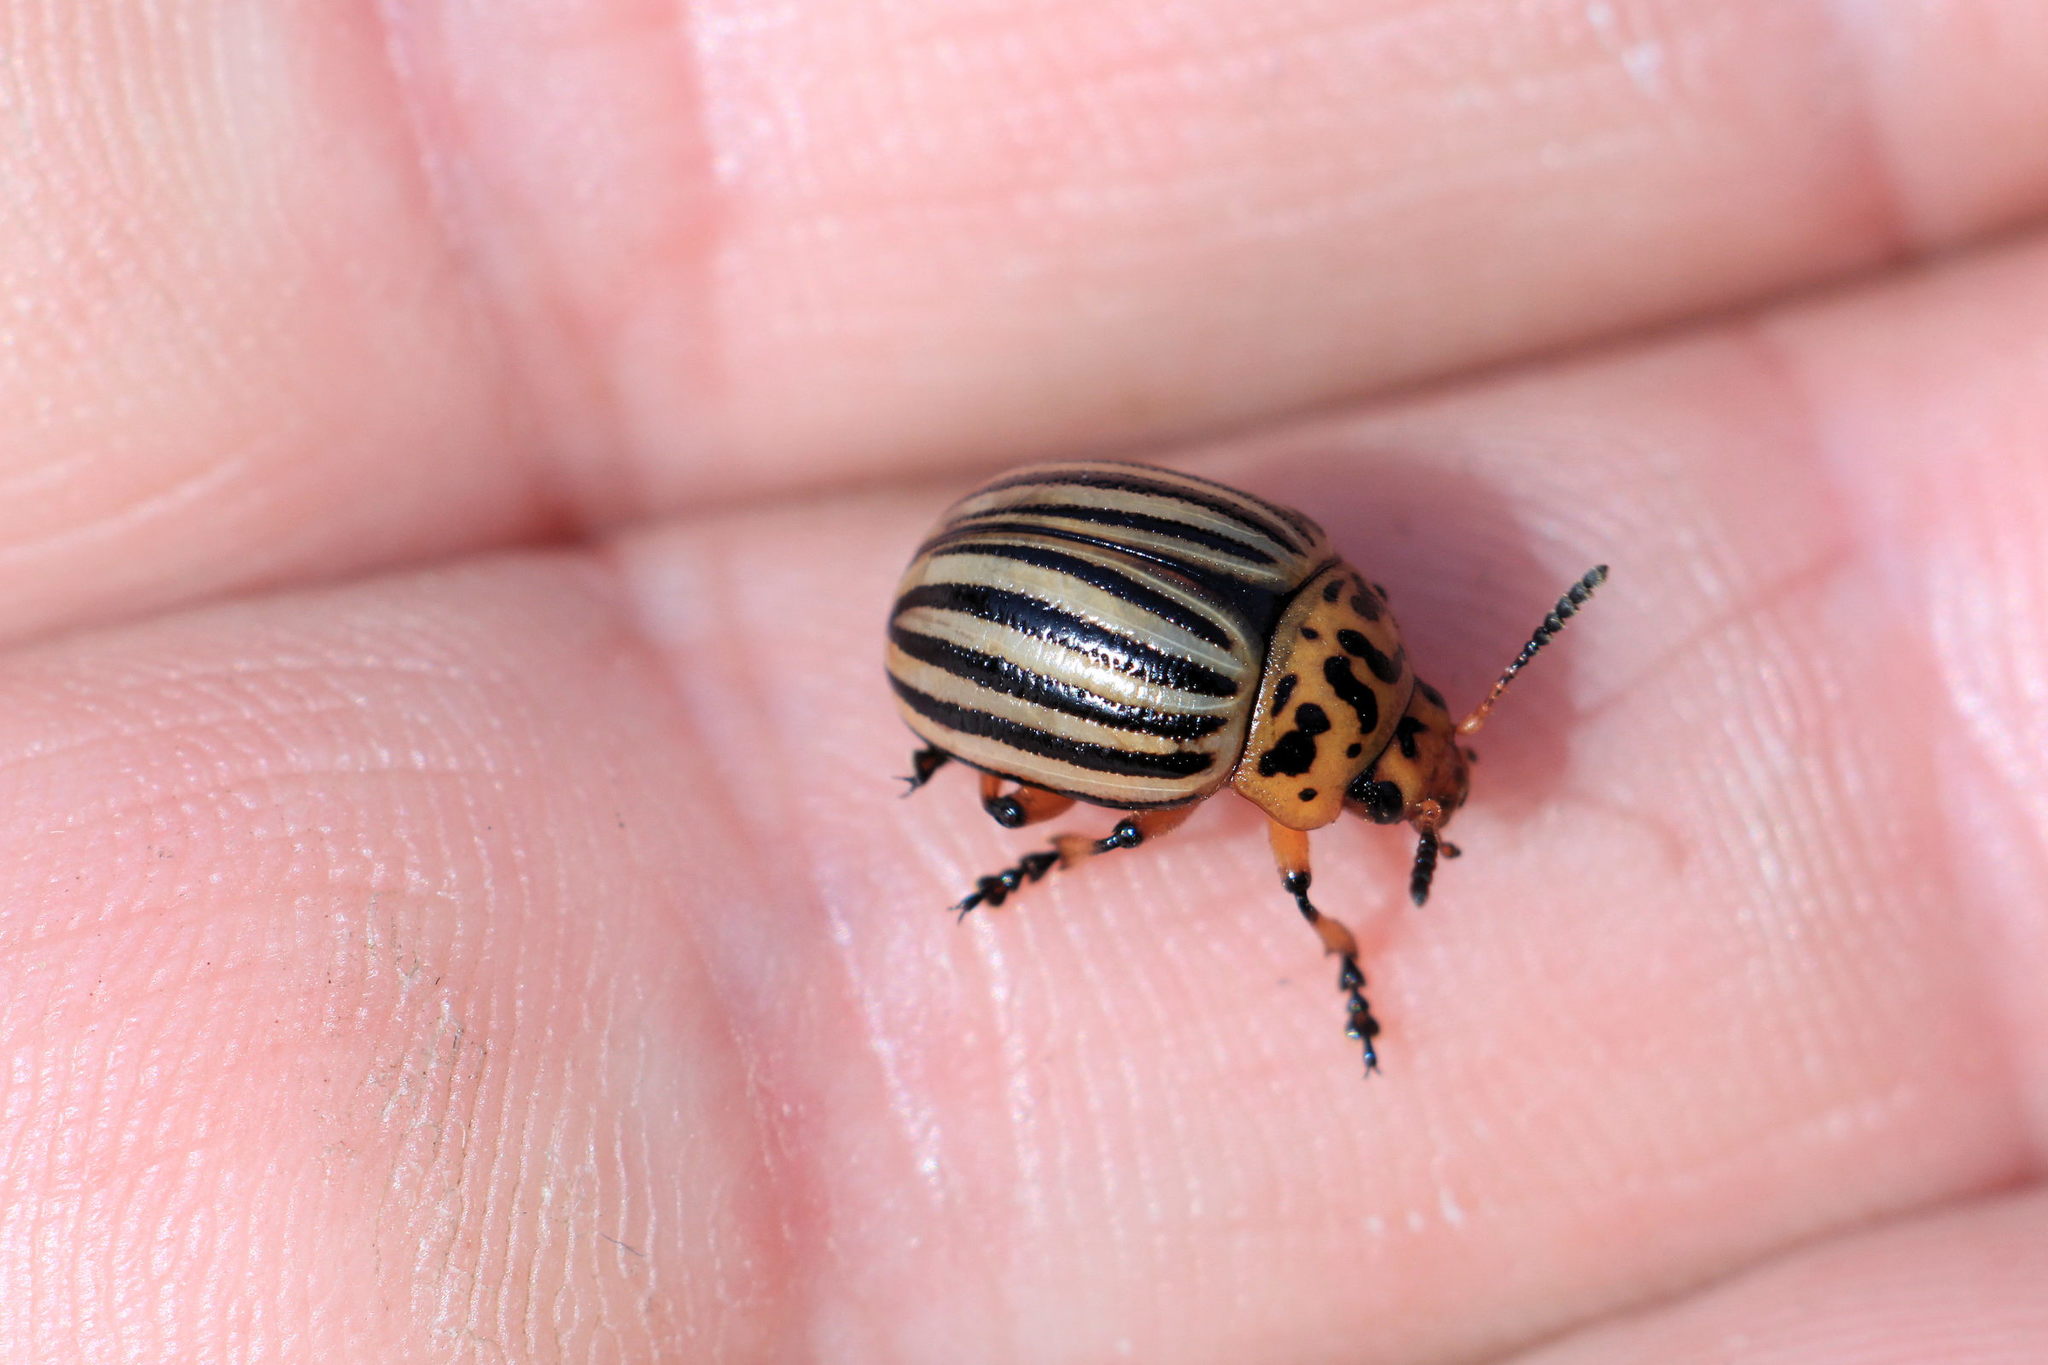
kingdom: Animalia
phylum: Arthropoda
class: Insecta
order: Coleoptera
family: Chrysomelidae
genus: Leptinotarsa
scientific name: Leptinotarsa decemlineata
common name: Colorado potato beetle
